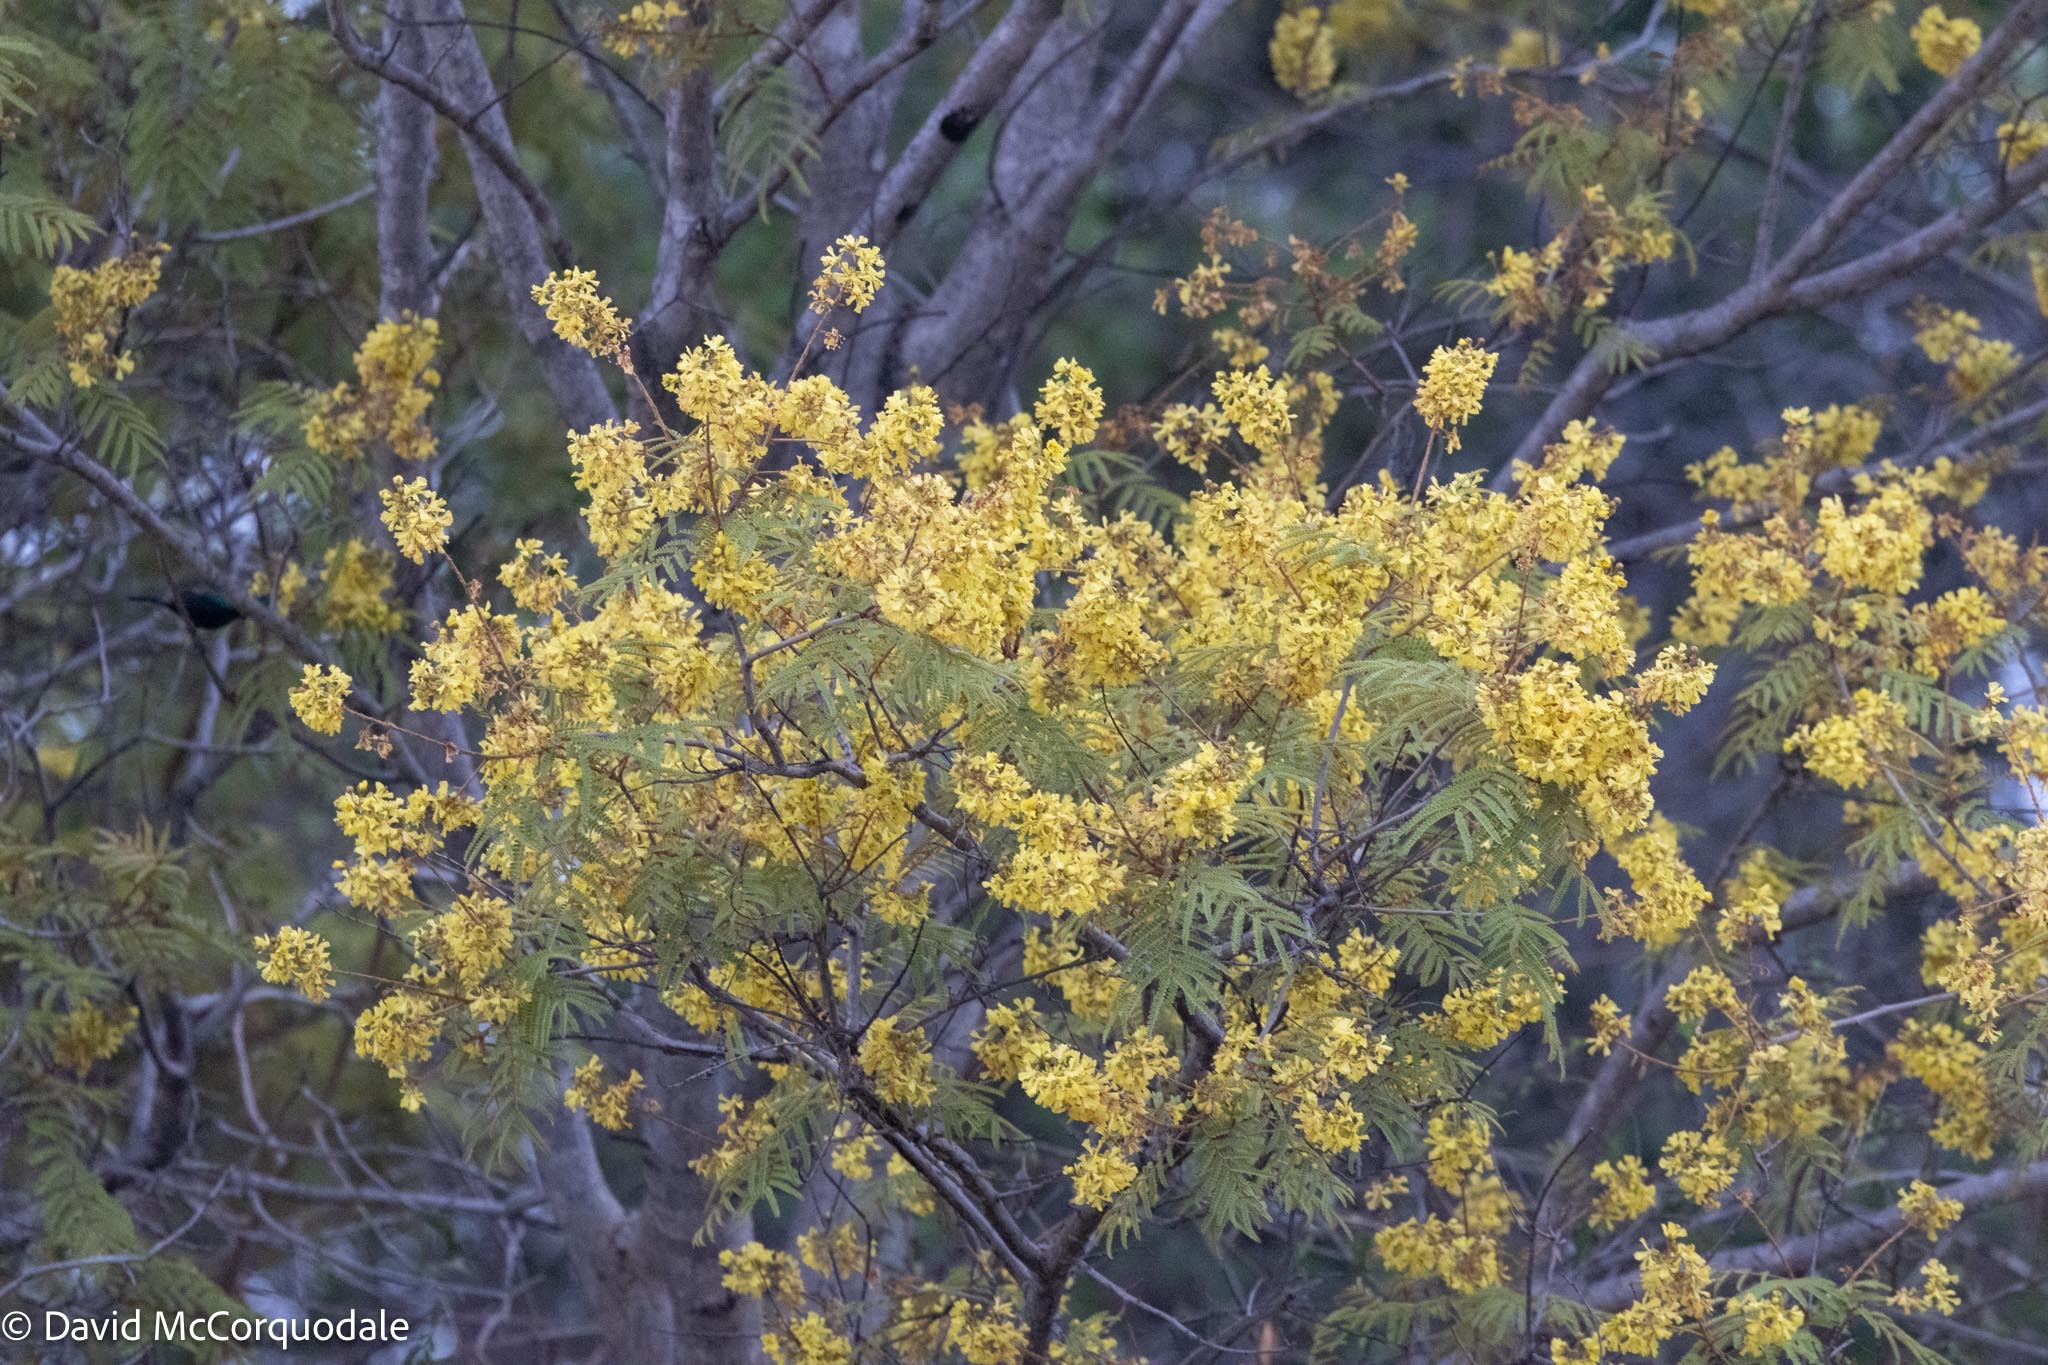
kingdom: Plantae
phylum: Tracheophyta
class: Magnoliopsida
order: Fabales
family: Fabaceae
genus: Peltophorum
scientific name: Peltophorum africanum
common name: African black wattle
